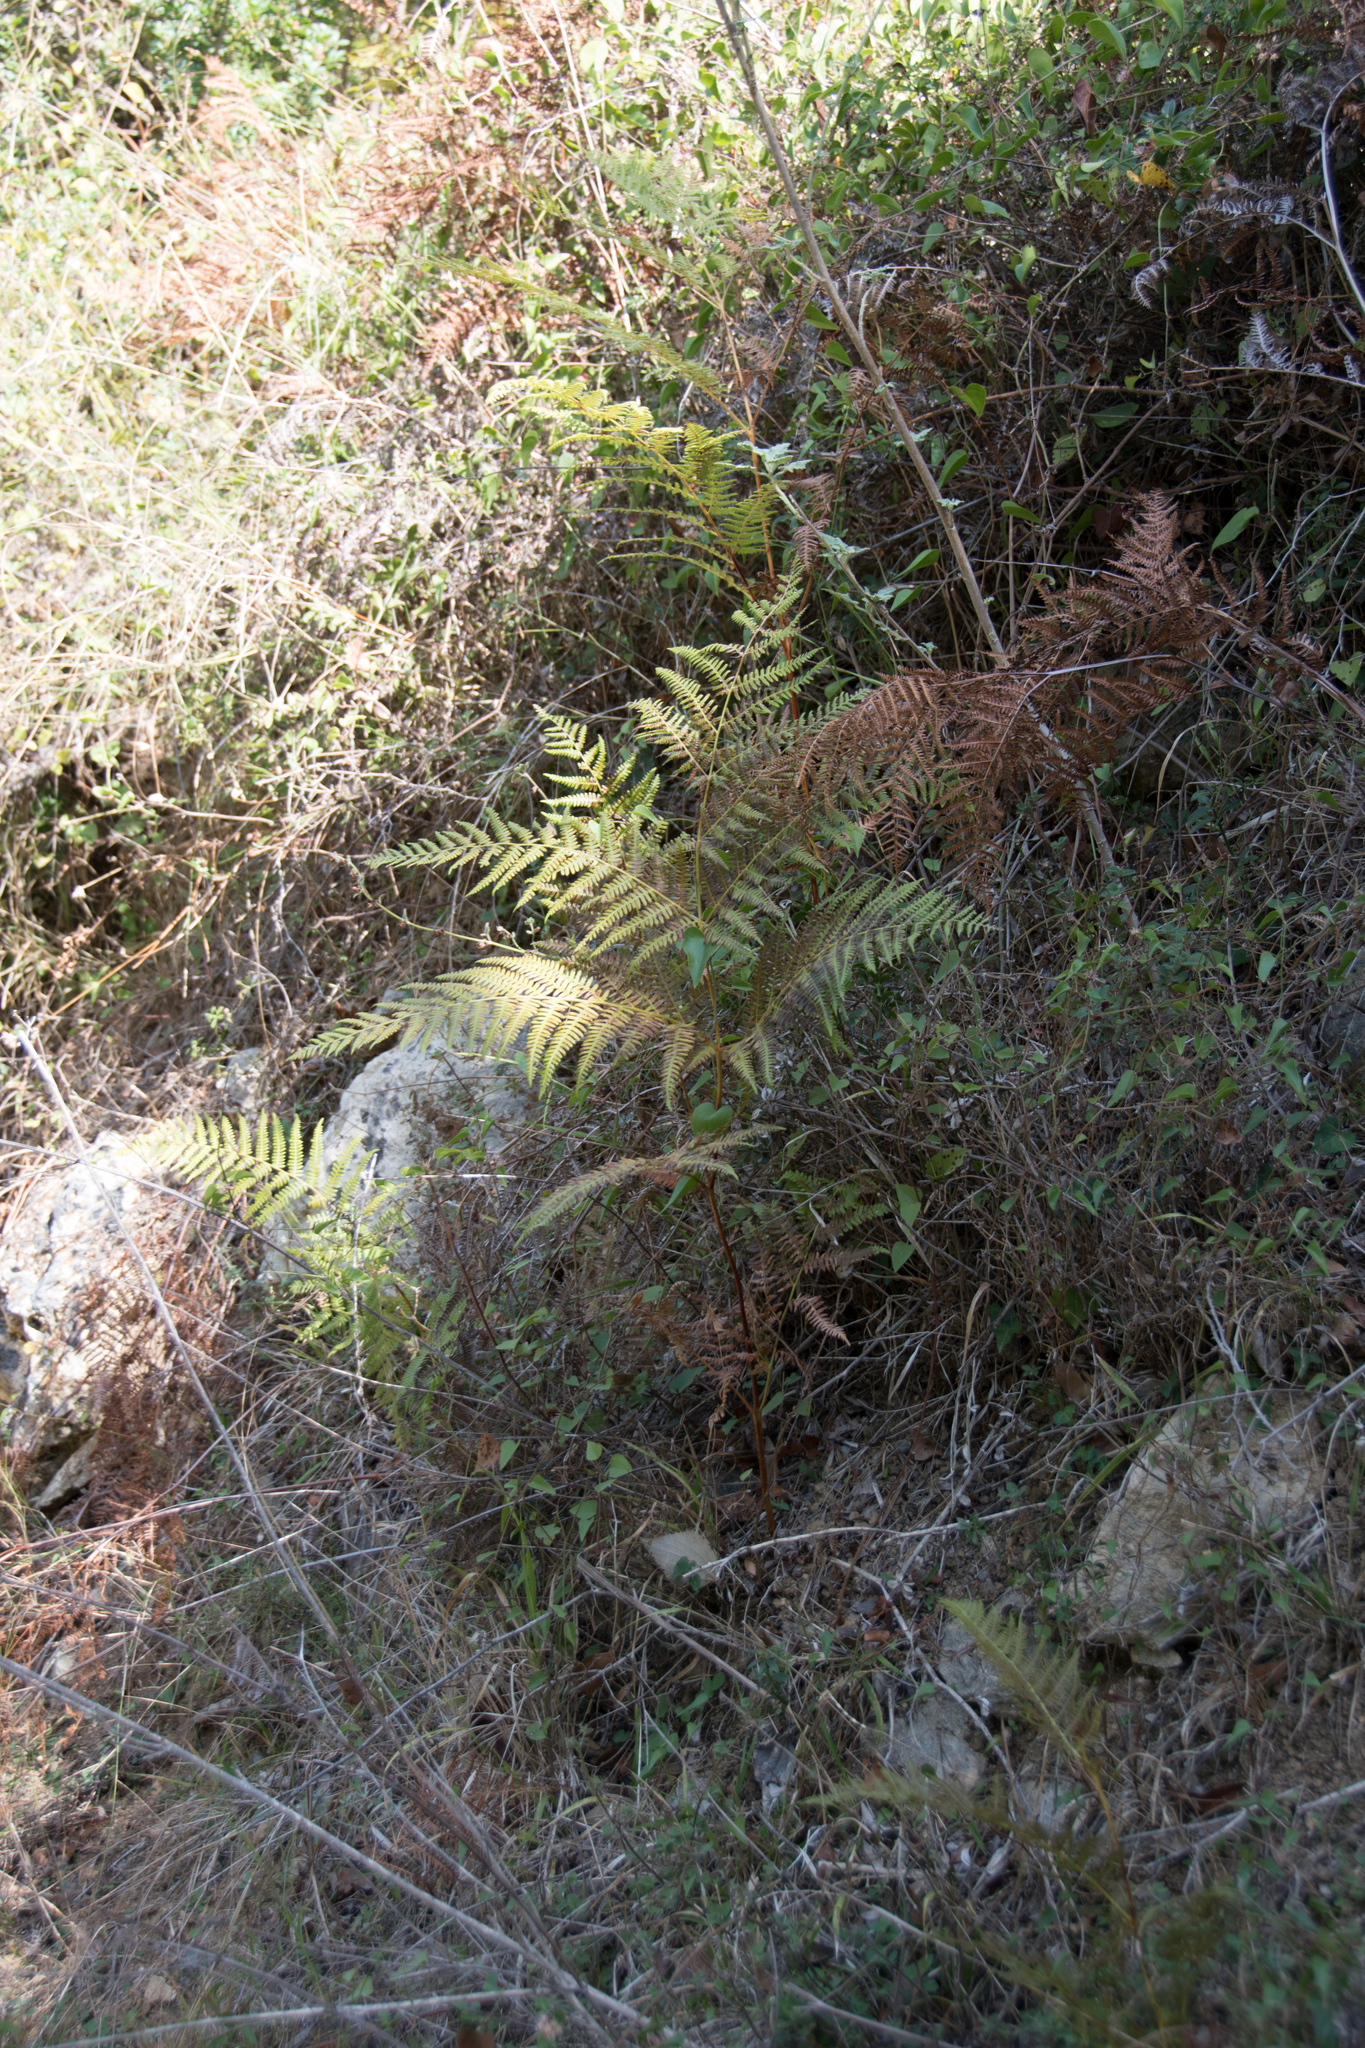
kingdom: Plantae
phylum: Tracheophyta
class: Polypodiopsida
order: Polypodiales
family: Dennstaedtiaceae
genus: Pteridium
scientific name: Pteridium aquilinum
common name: Bracken
